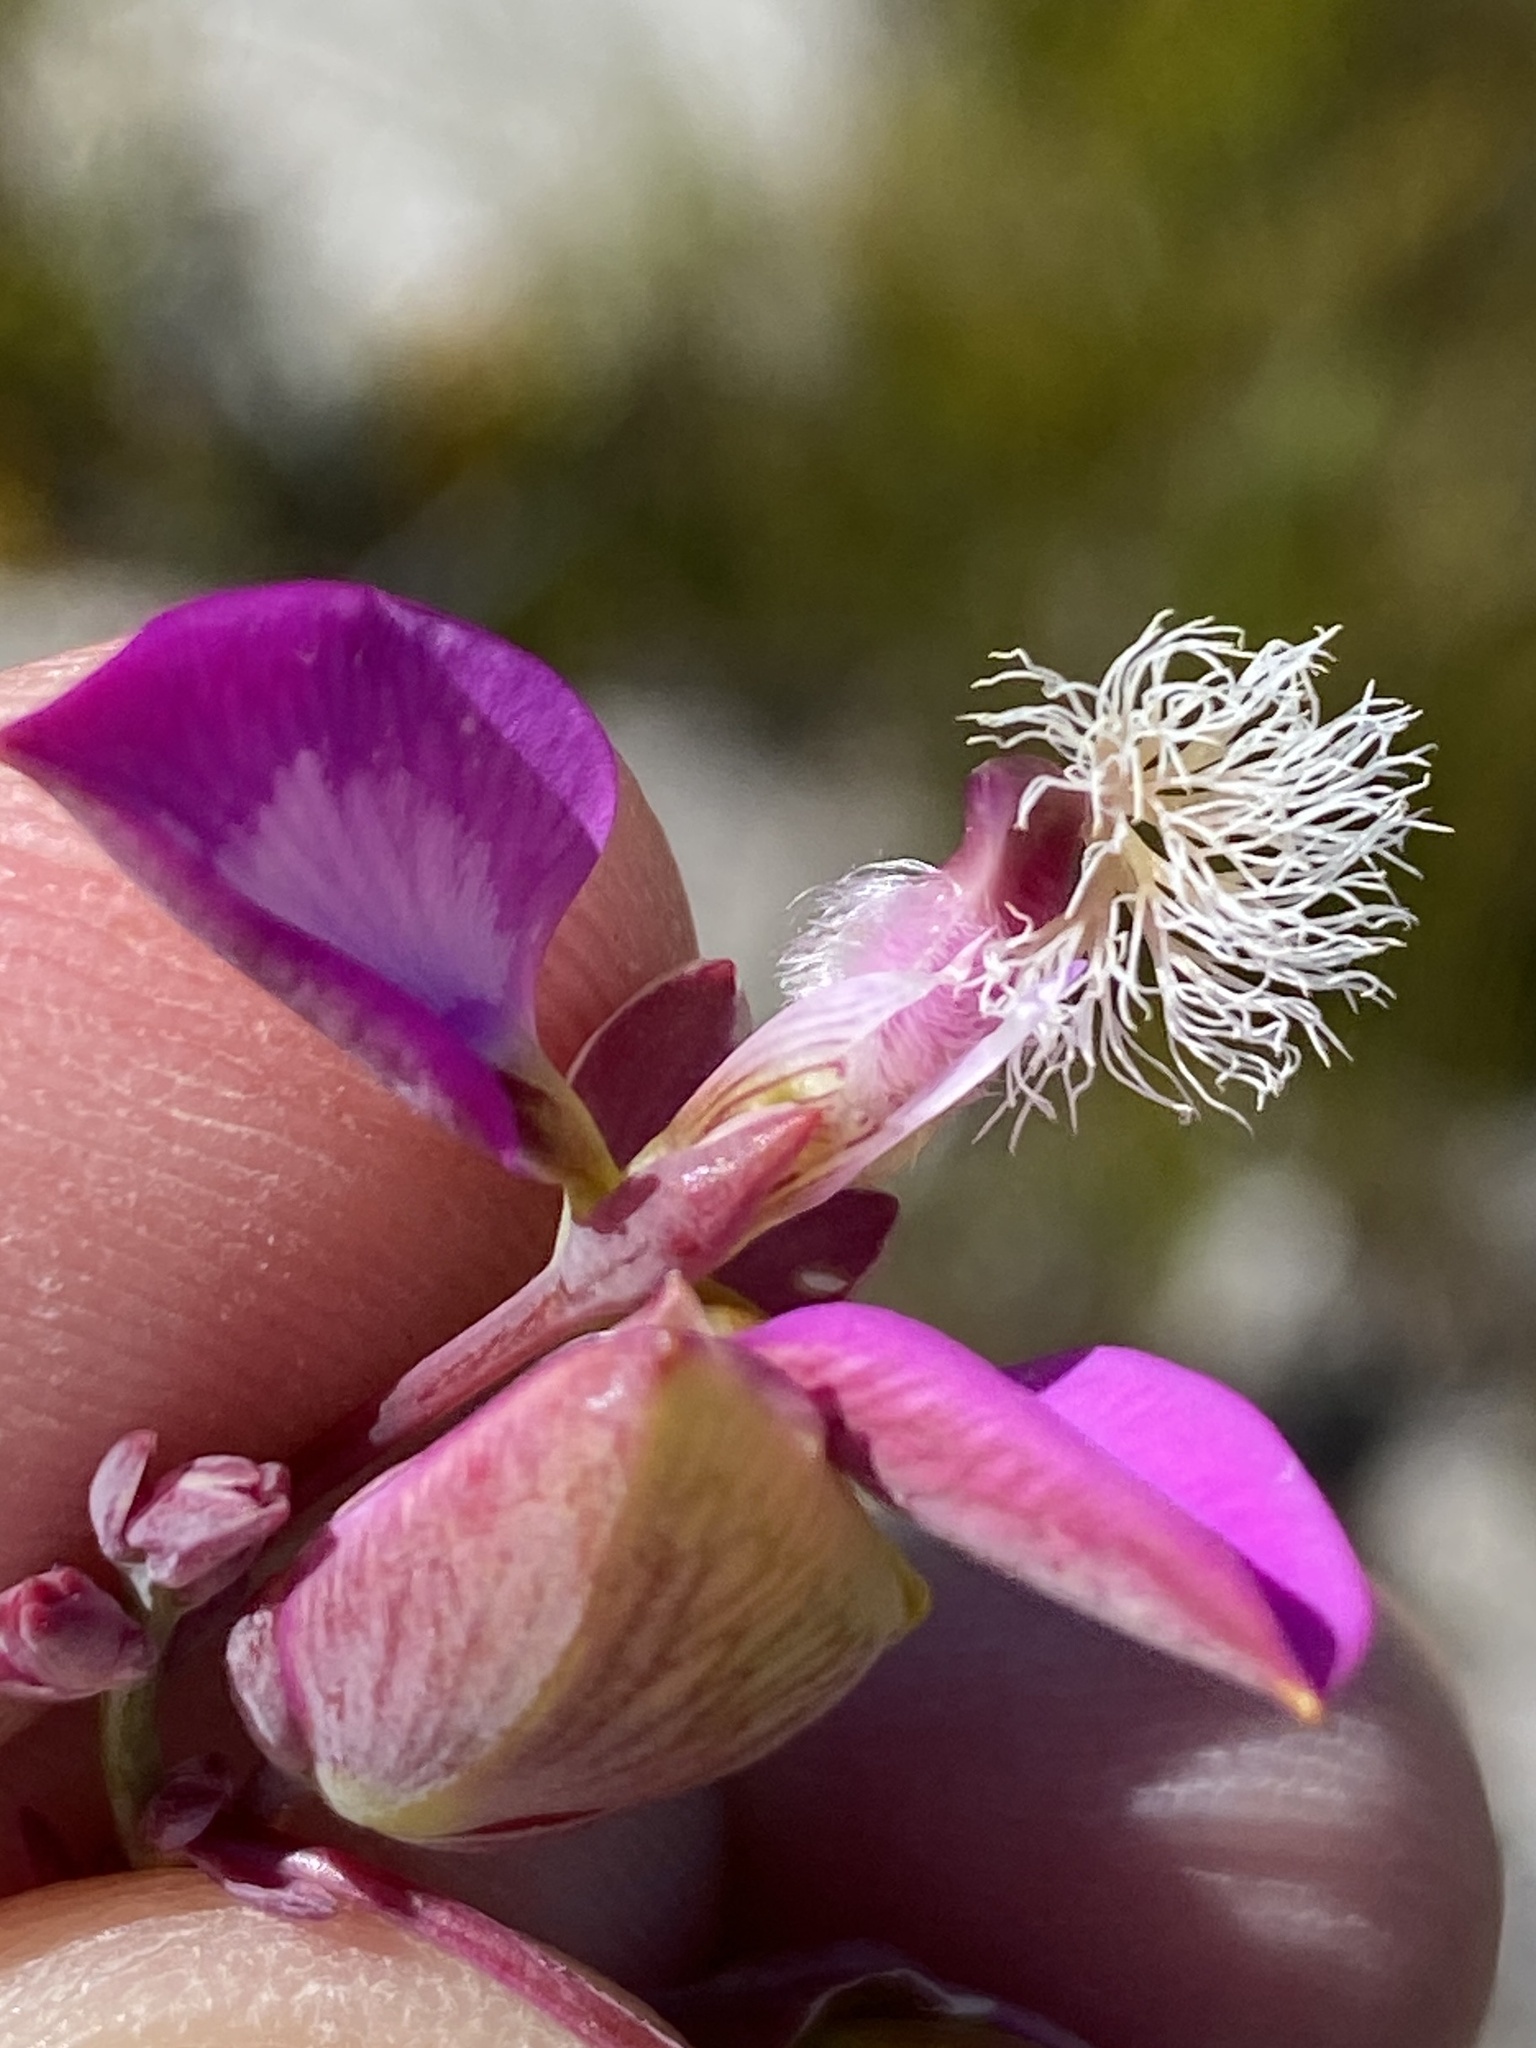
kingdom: Plantae
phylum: Tracheophyta
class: Magnoliopsida
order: Fabales
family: Polygalaceae
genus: Polygala
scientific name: Polygala bracteolata
